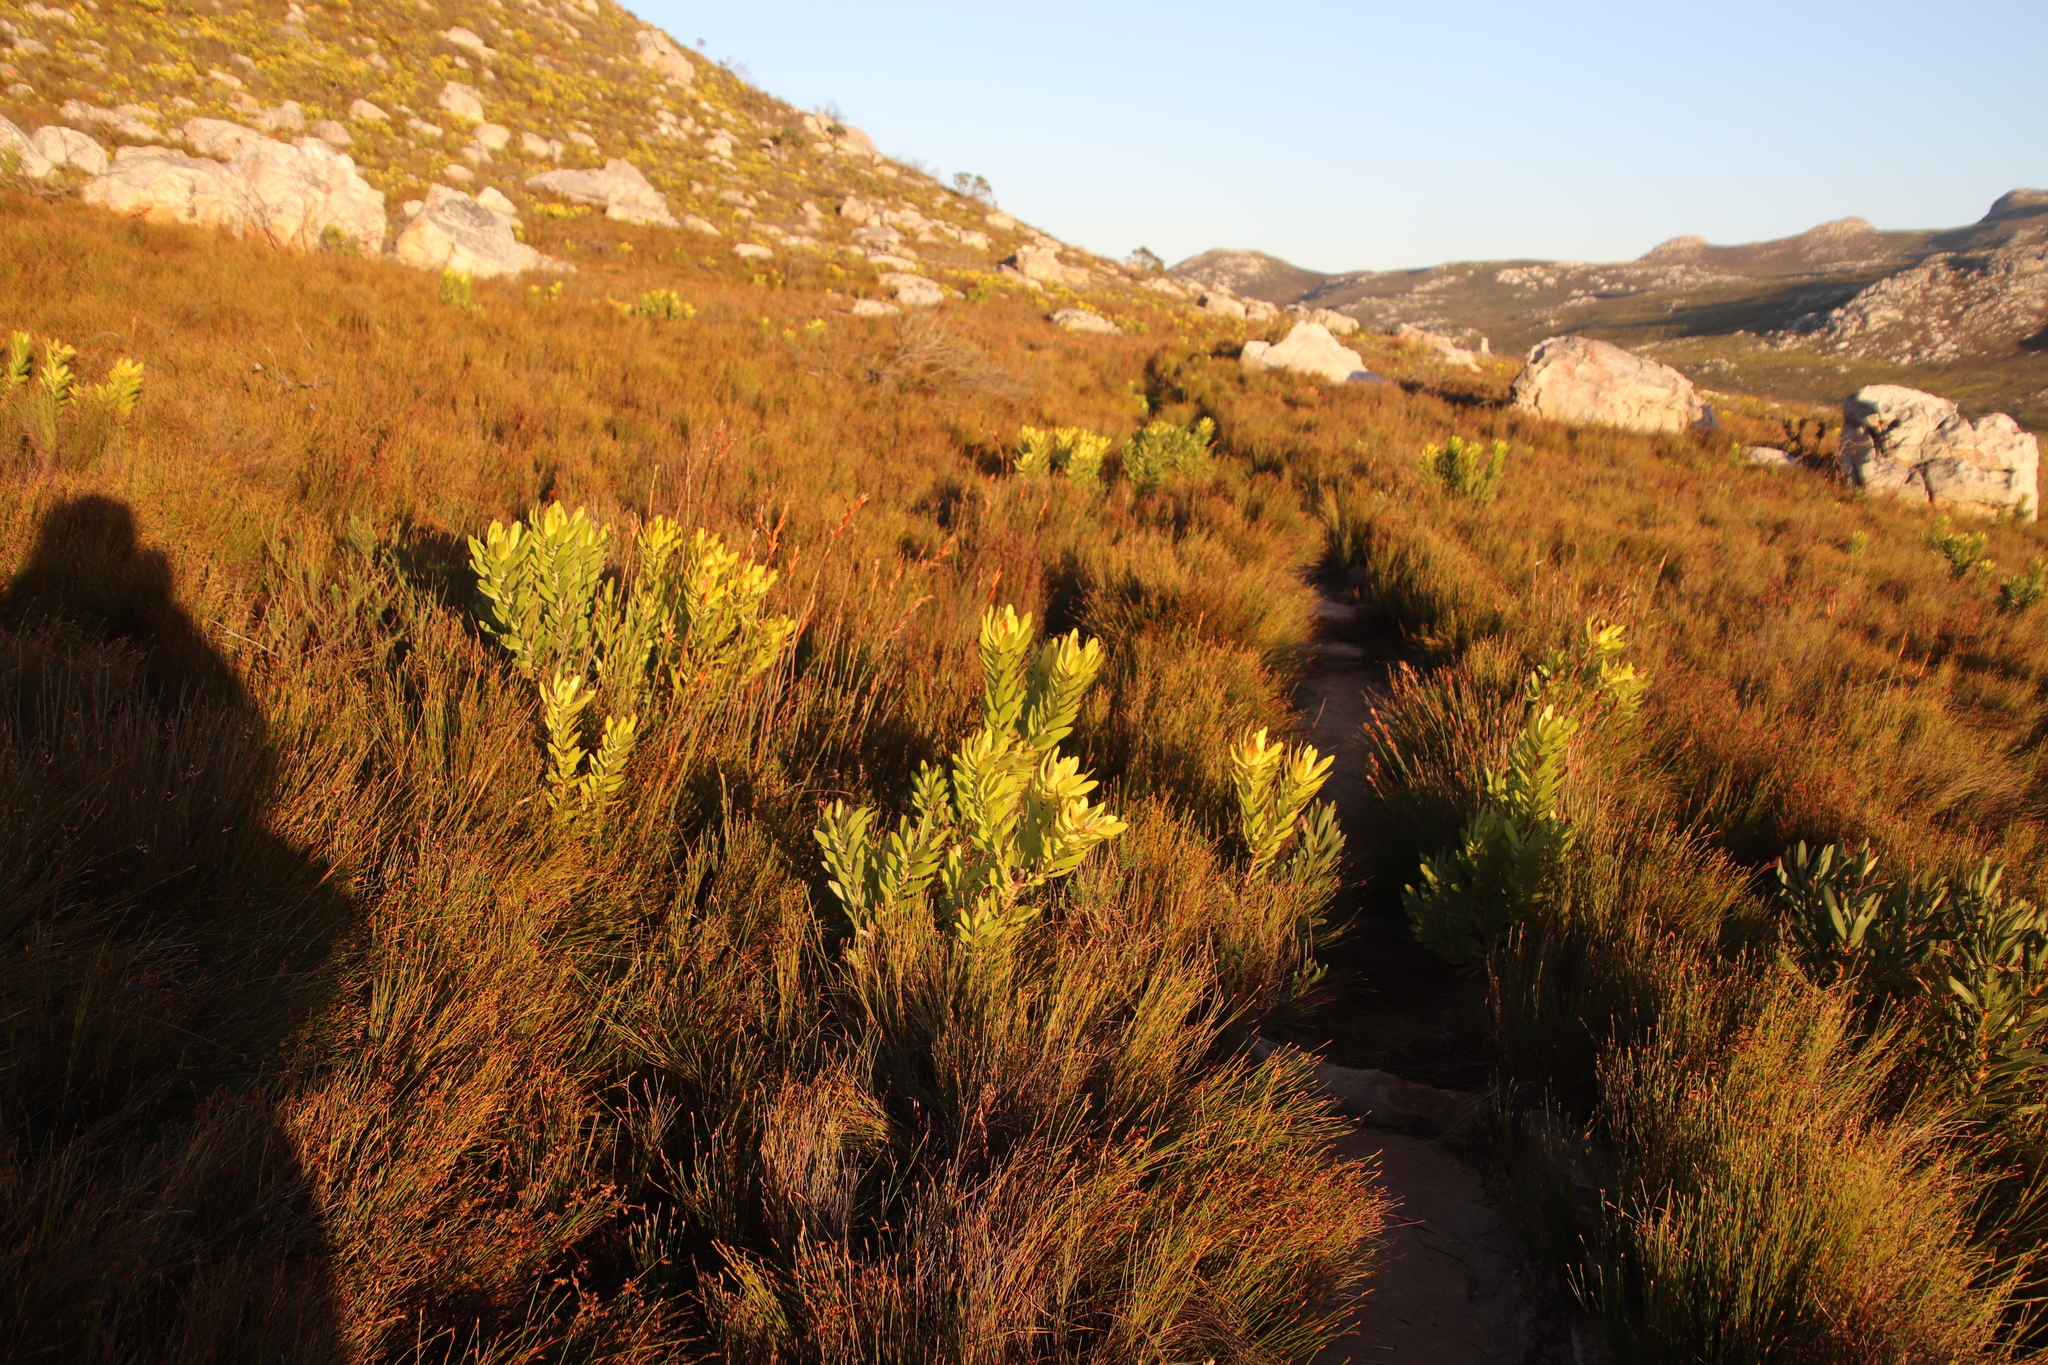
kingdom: Plantae
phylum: Tracheophyta
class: Magnoliopsida
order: Proteales
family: Proteaceae
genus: Leucadendron
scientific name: Leucadendron laureolum
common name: Golden sunshinebush
